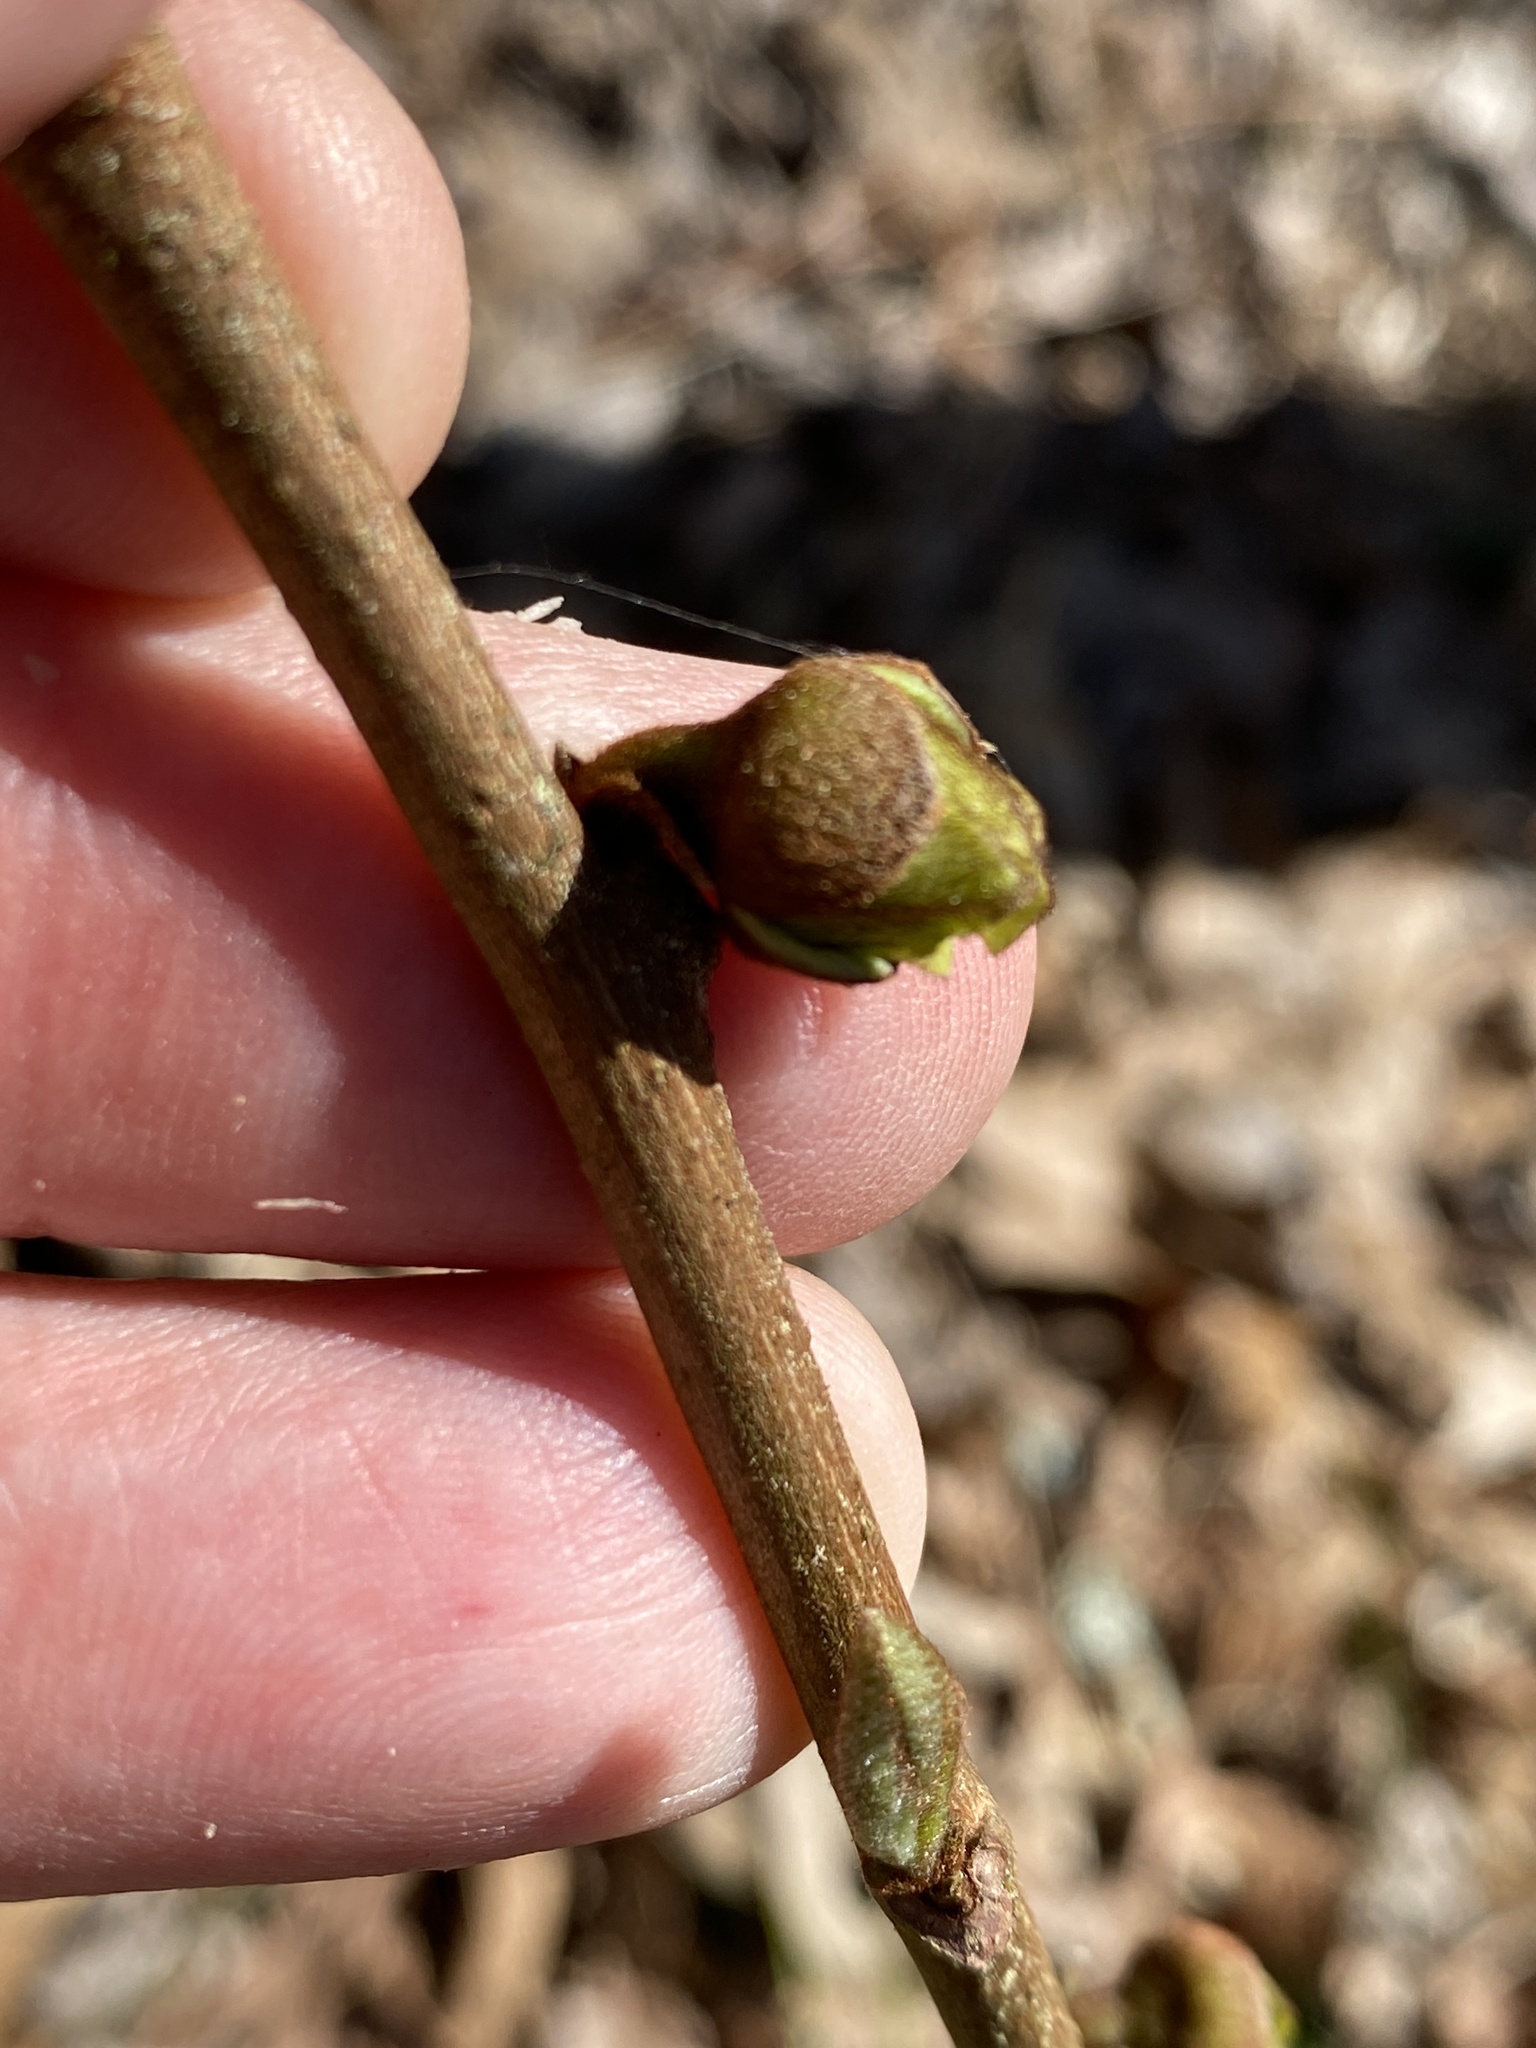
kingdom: Plantae
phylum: Tracheophyta
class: Magnoliopsida
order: Magnoliales
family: Annonaceae
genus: Asimina
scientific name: Asimina parviflora
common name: Dwarf pawpaw
